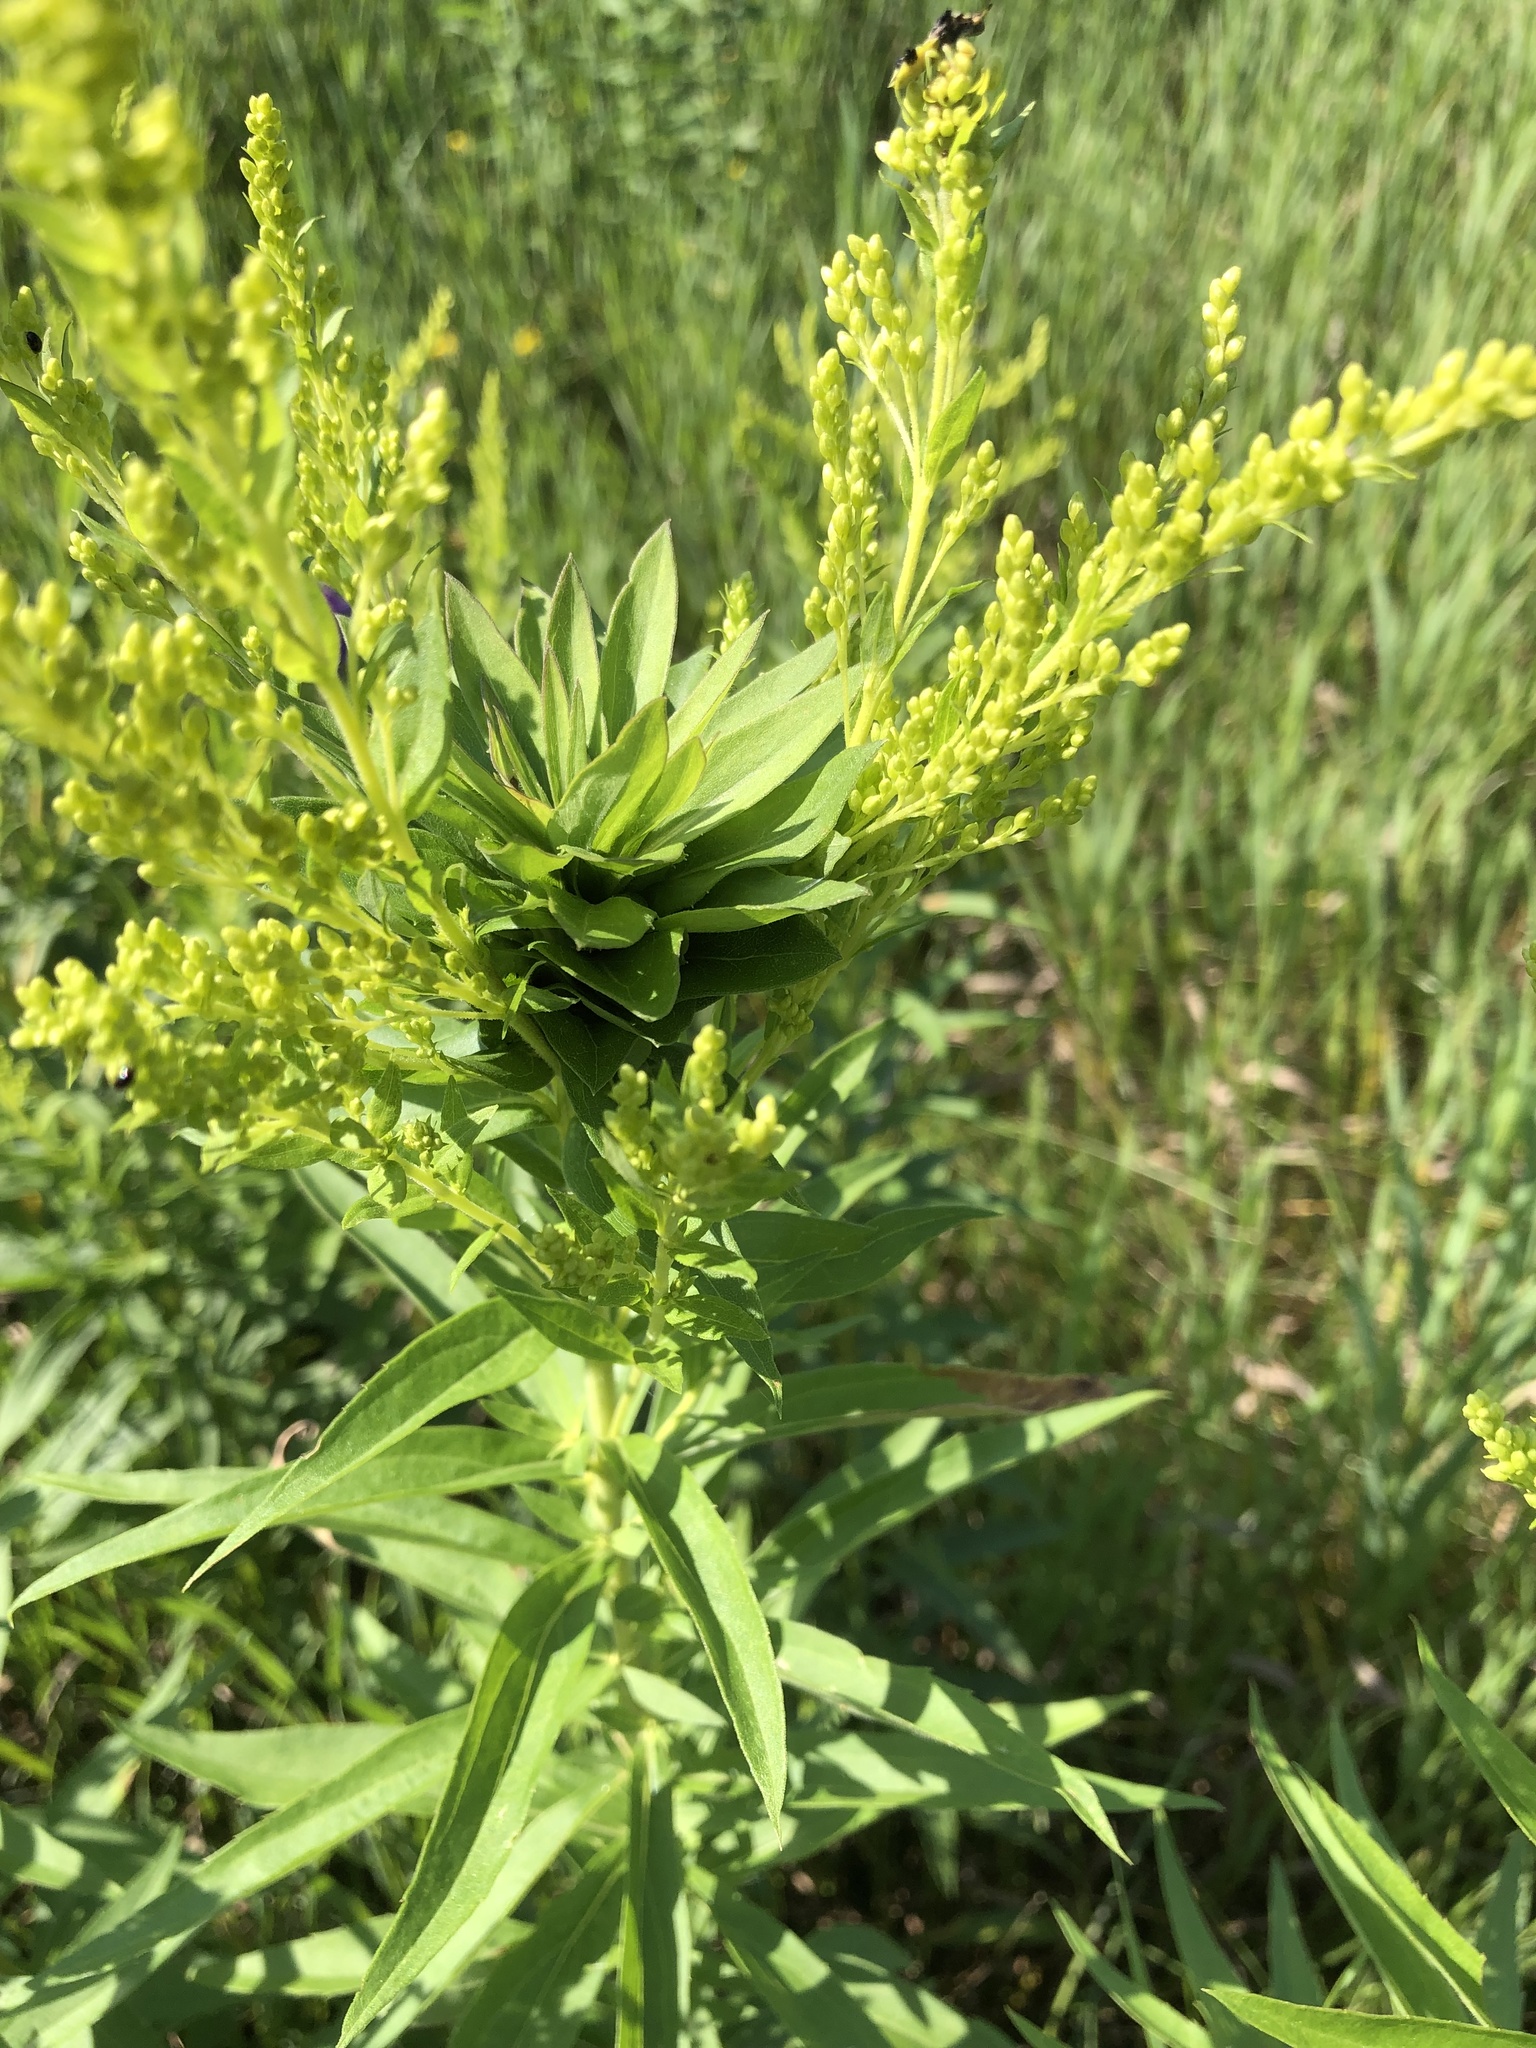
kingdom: Animalia
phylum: Arthropoda
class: Insecta
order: Diptera
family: Cecidomyiidae
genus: Rhopalomyia
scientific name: Rhopalomyia solidaginis
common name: Goldenrod bunch gall midge
